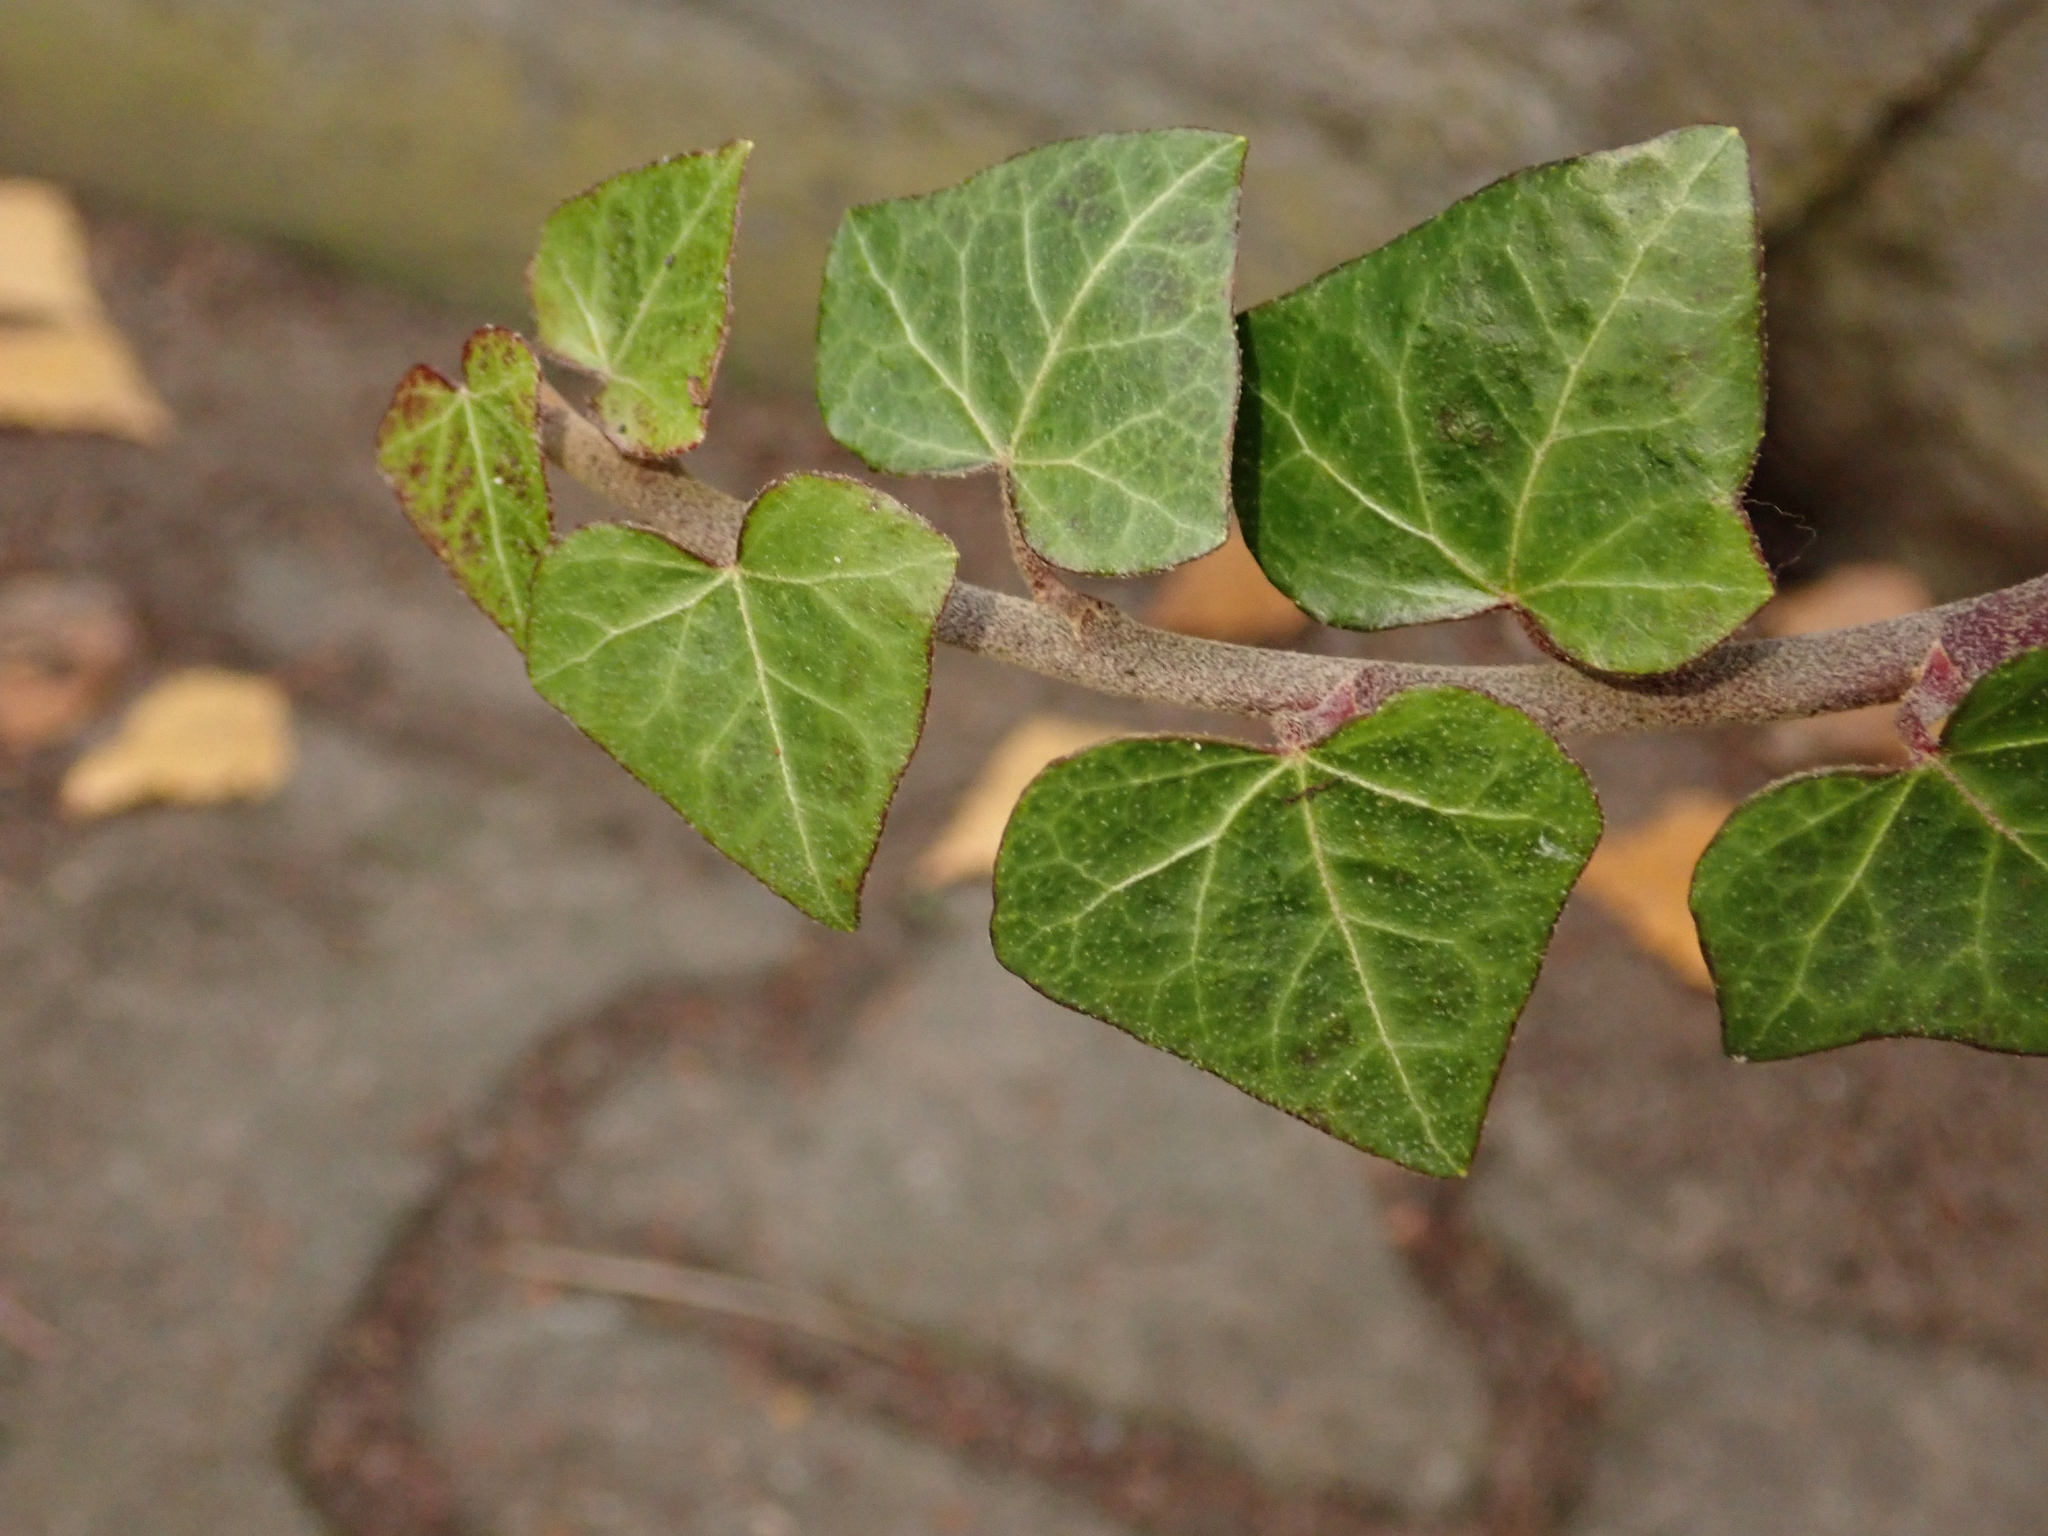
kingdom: Plantae
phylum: Tracheophyta
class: Magnoliopsida
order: Apiales
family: Araliaceae
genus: Hedera
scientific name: Hedera helix
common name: Ivy
